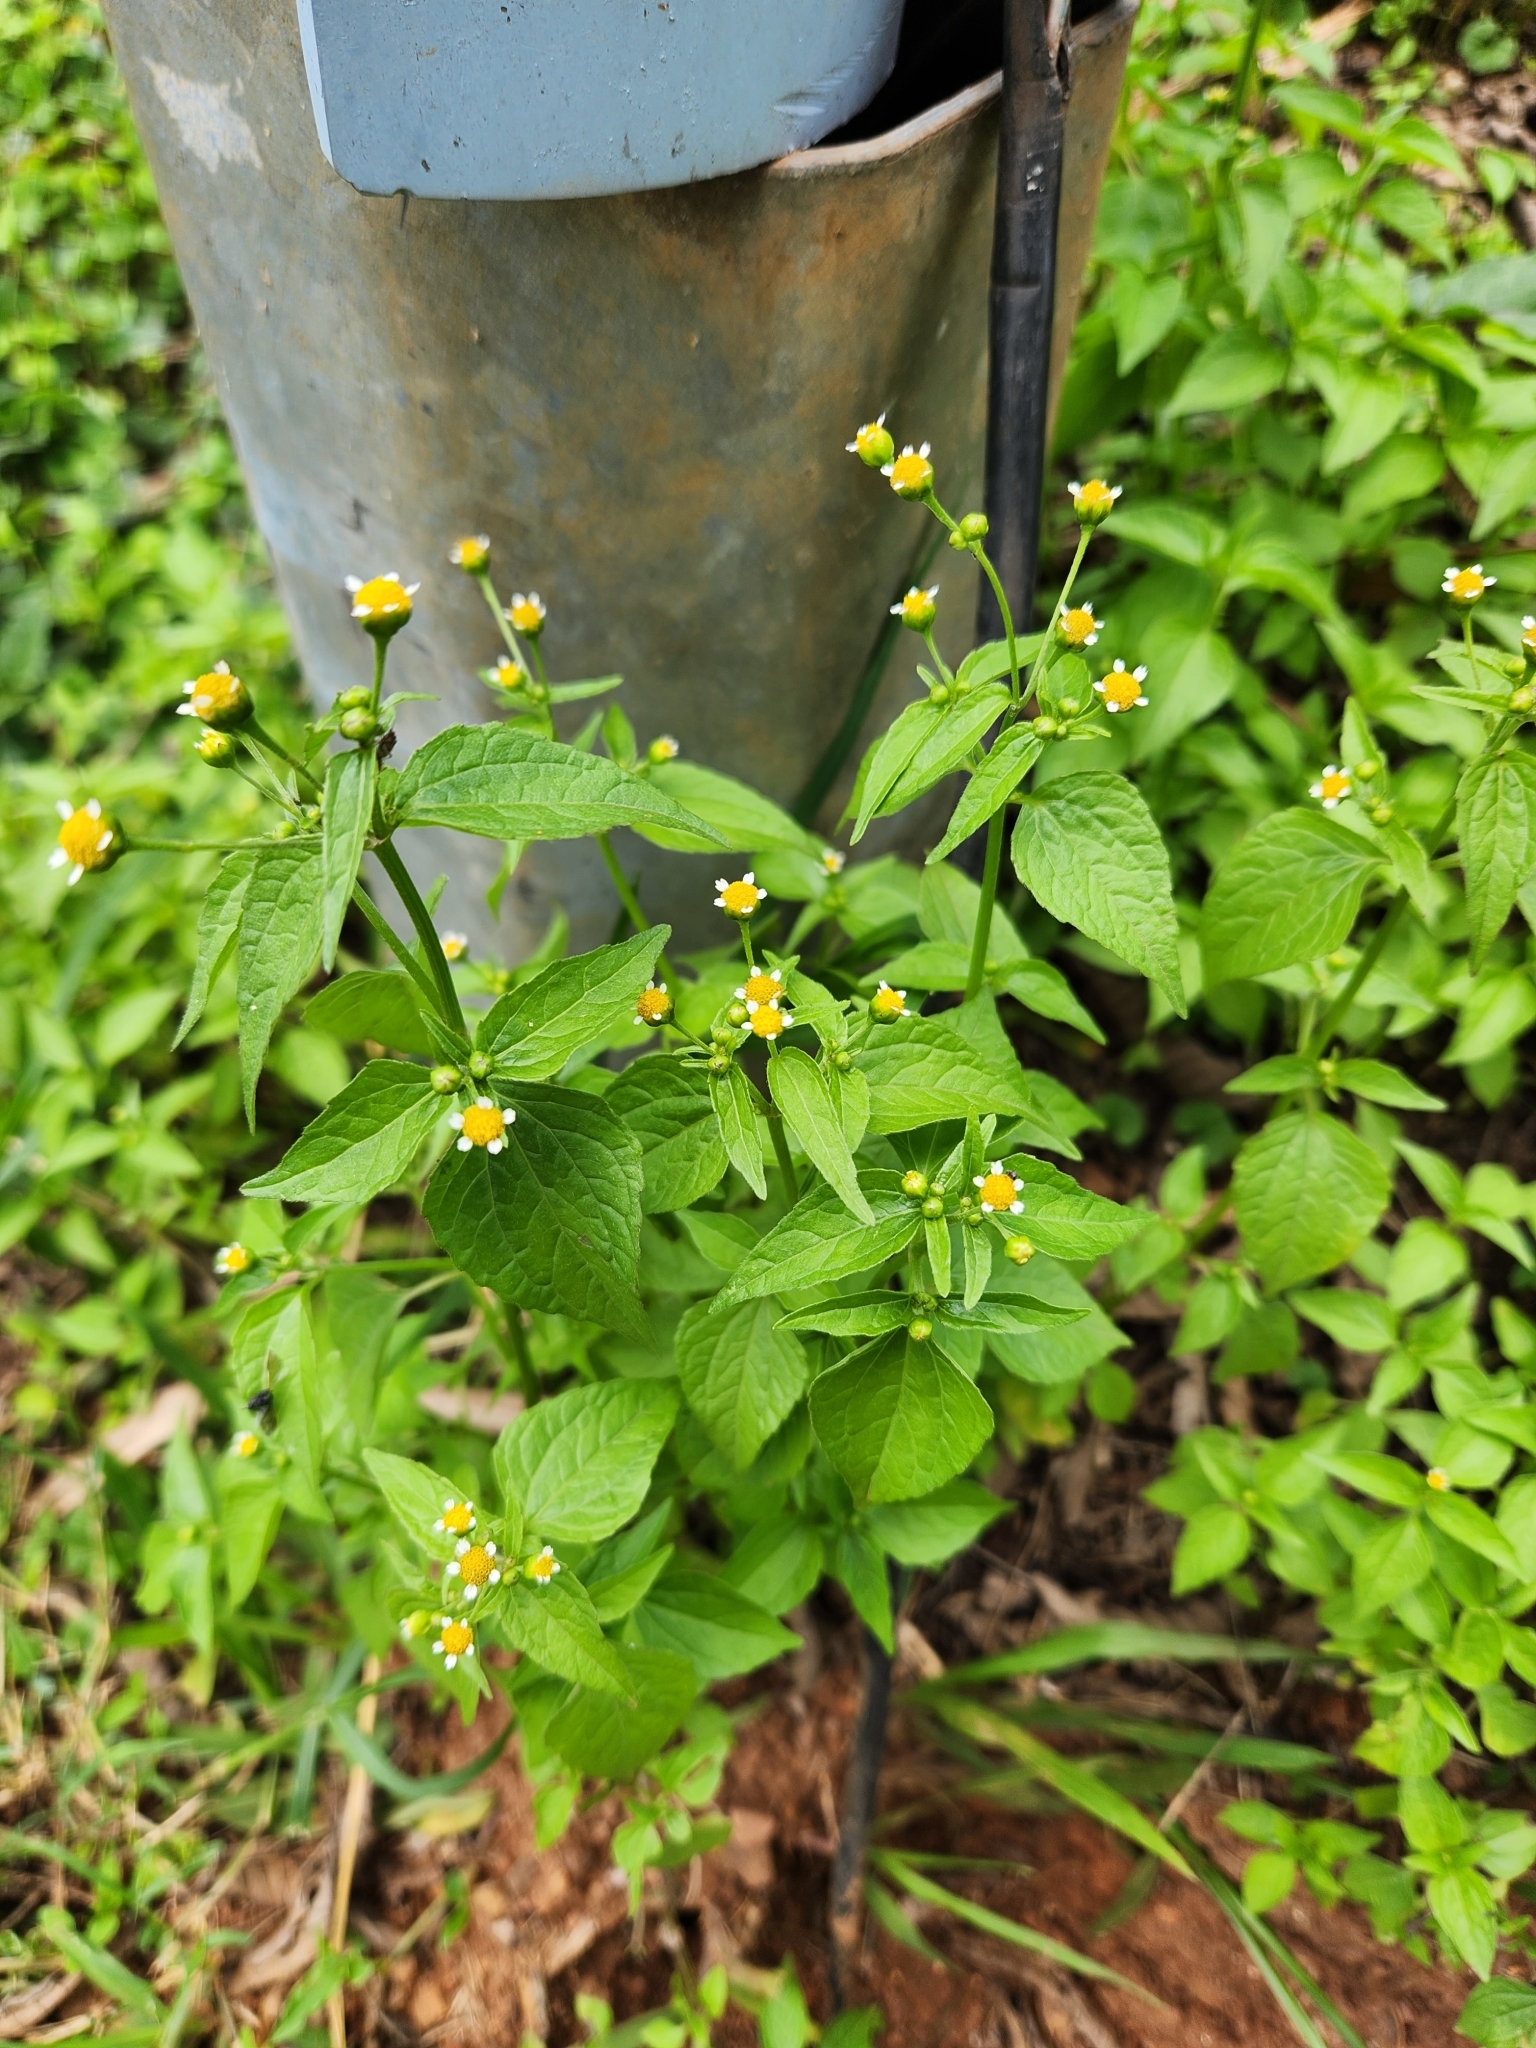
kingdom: Plantae
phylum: Tracheophyta
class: Magnoliopsida
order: Asterales
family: Asteraceae
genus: Galinsoga
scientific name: Galinsoga parviflora
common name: Gallant soldier
